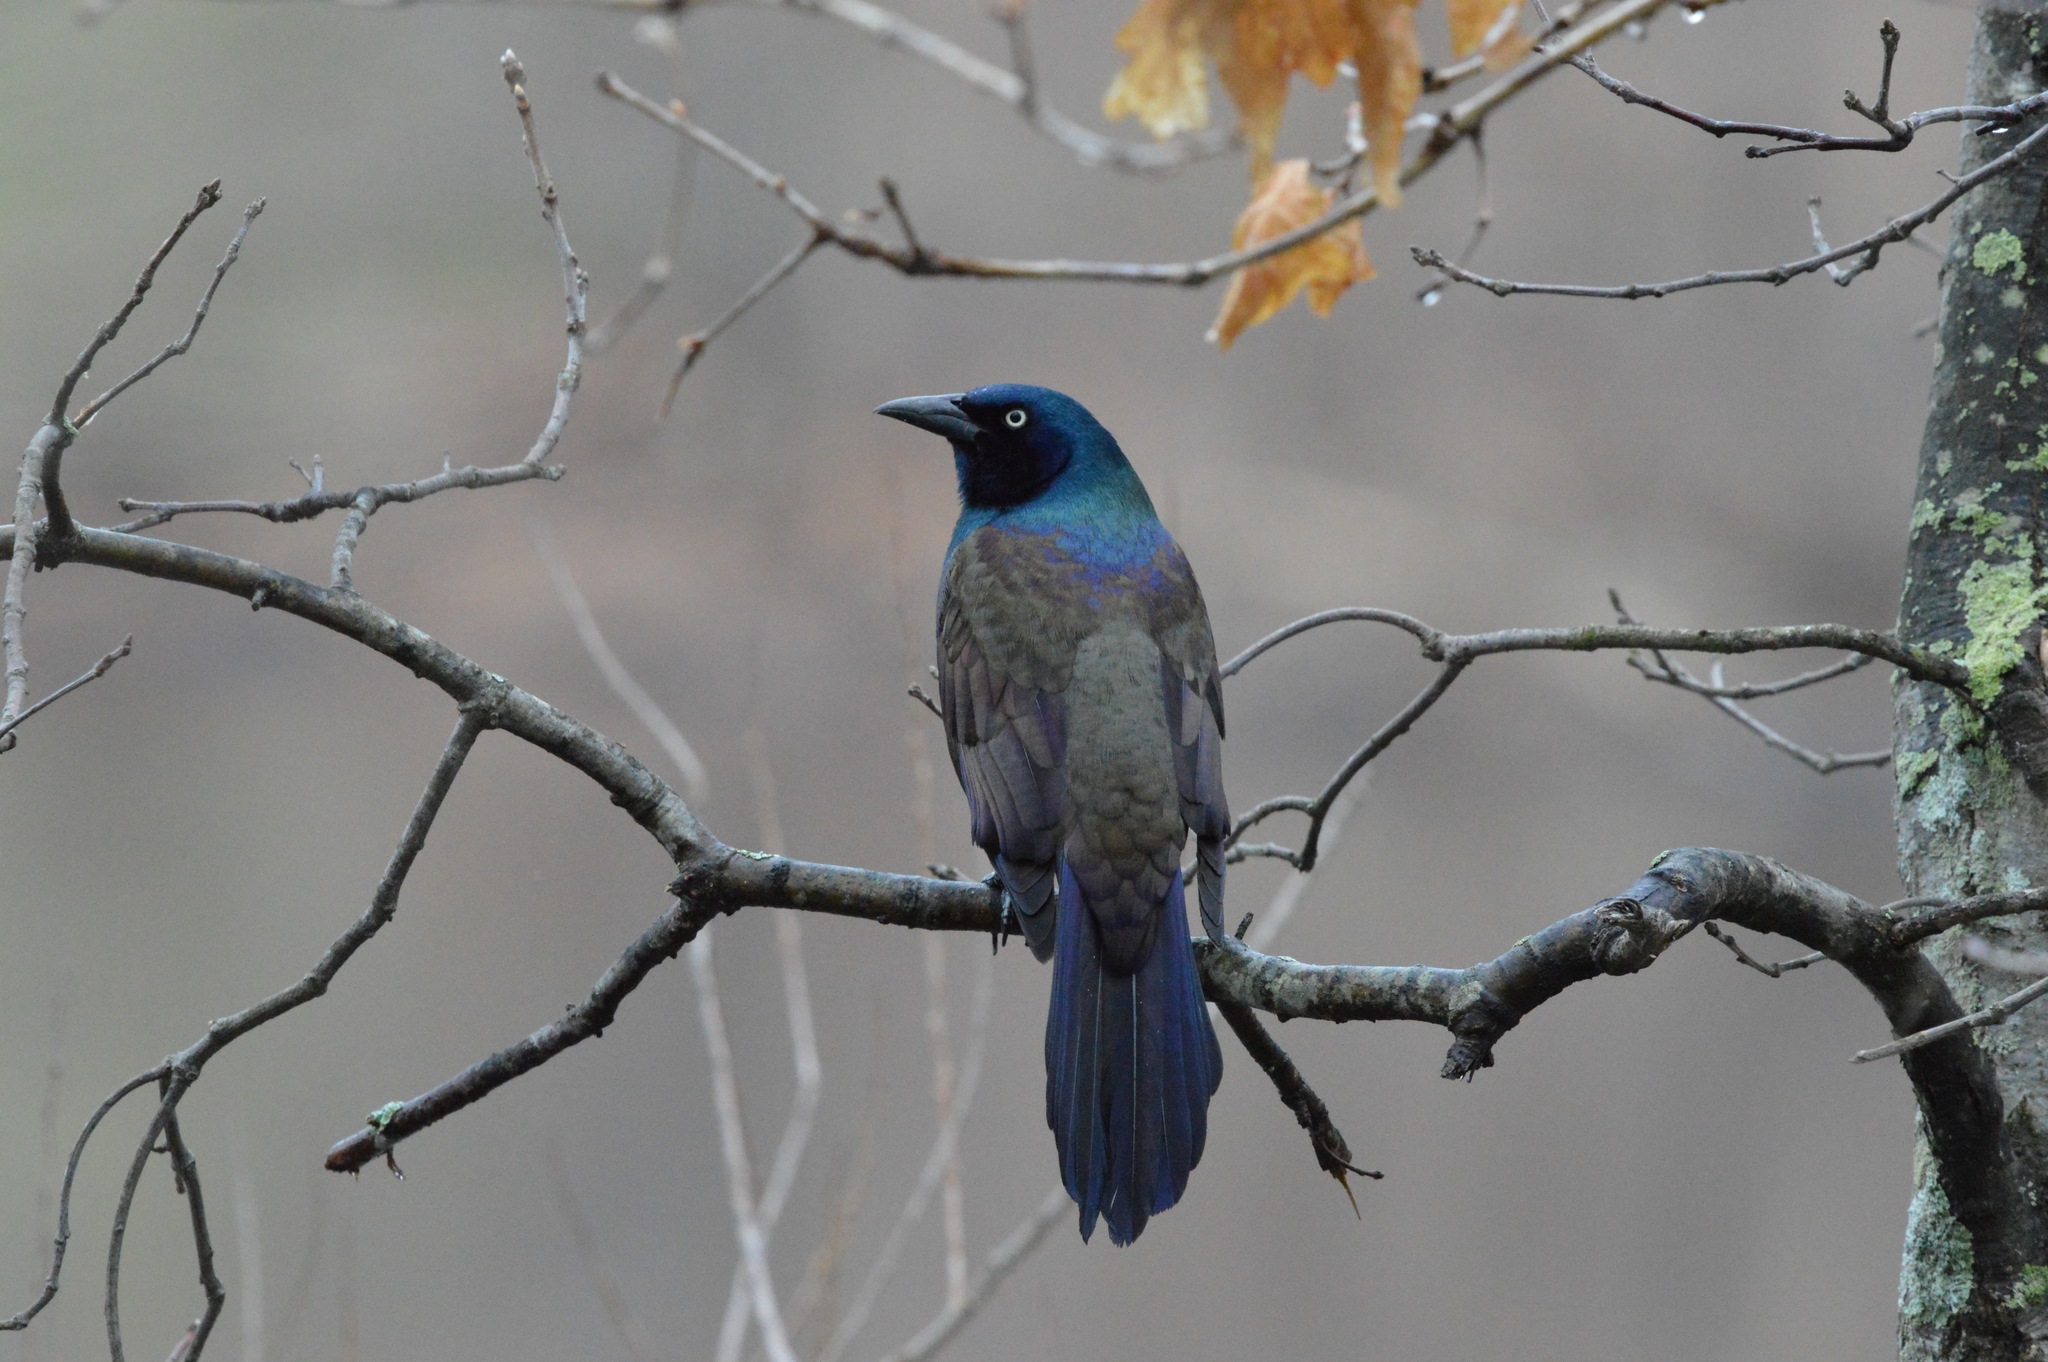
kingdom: Animalia
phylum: Chordata
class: Aves
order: Passeriformes
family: Icteridae
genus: Quiscalus
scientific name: Quiscalus quiscula
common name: Common grackle
